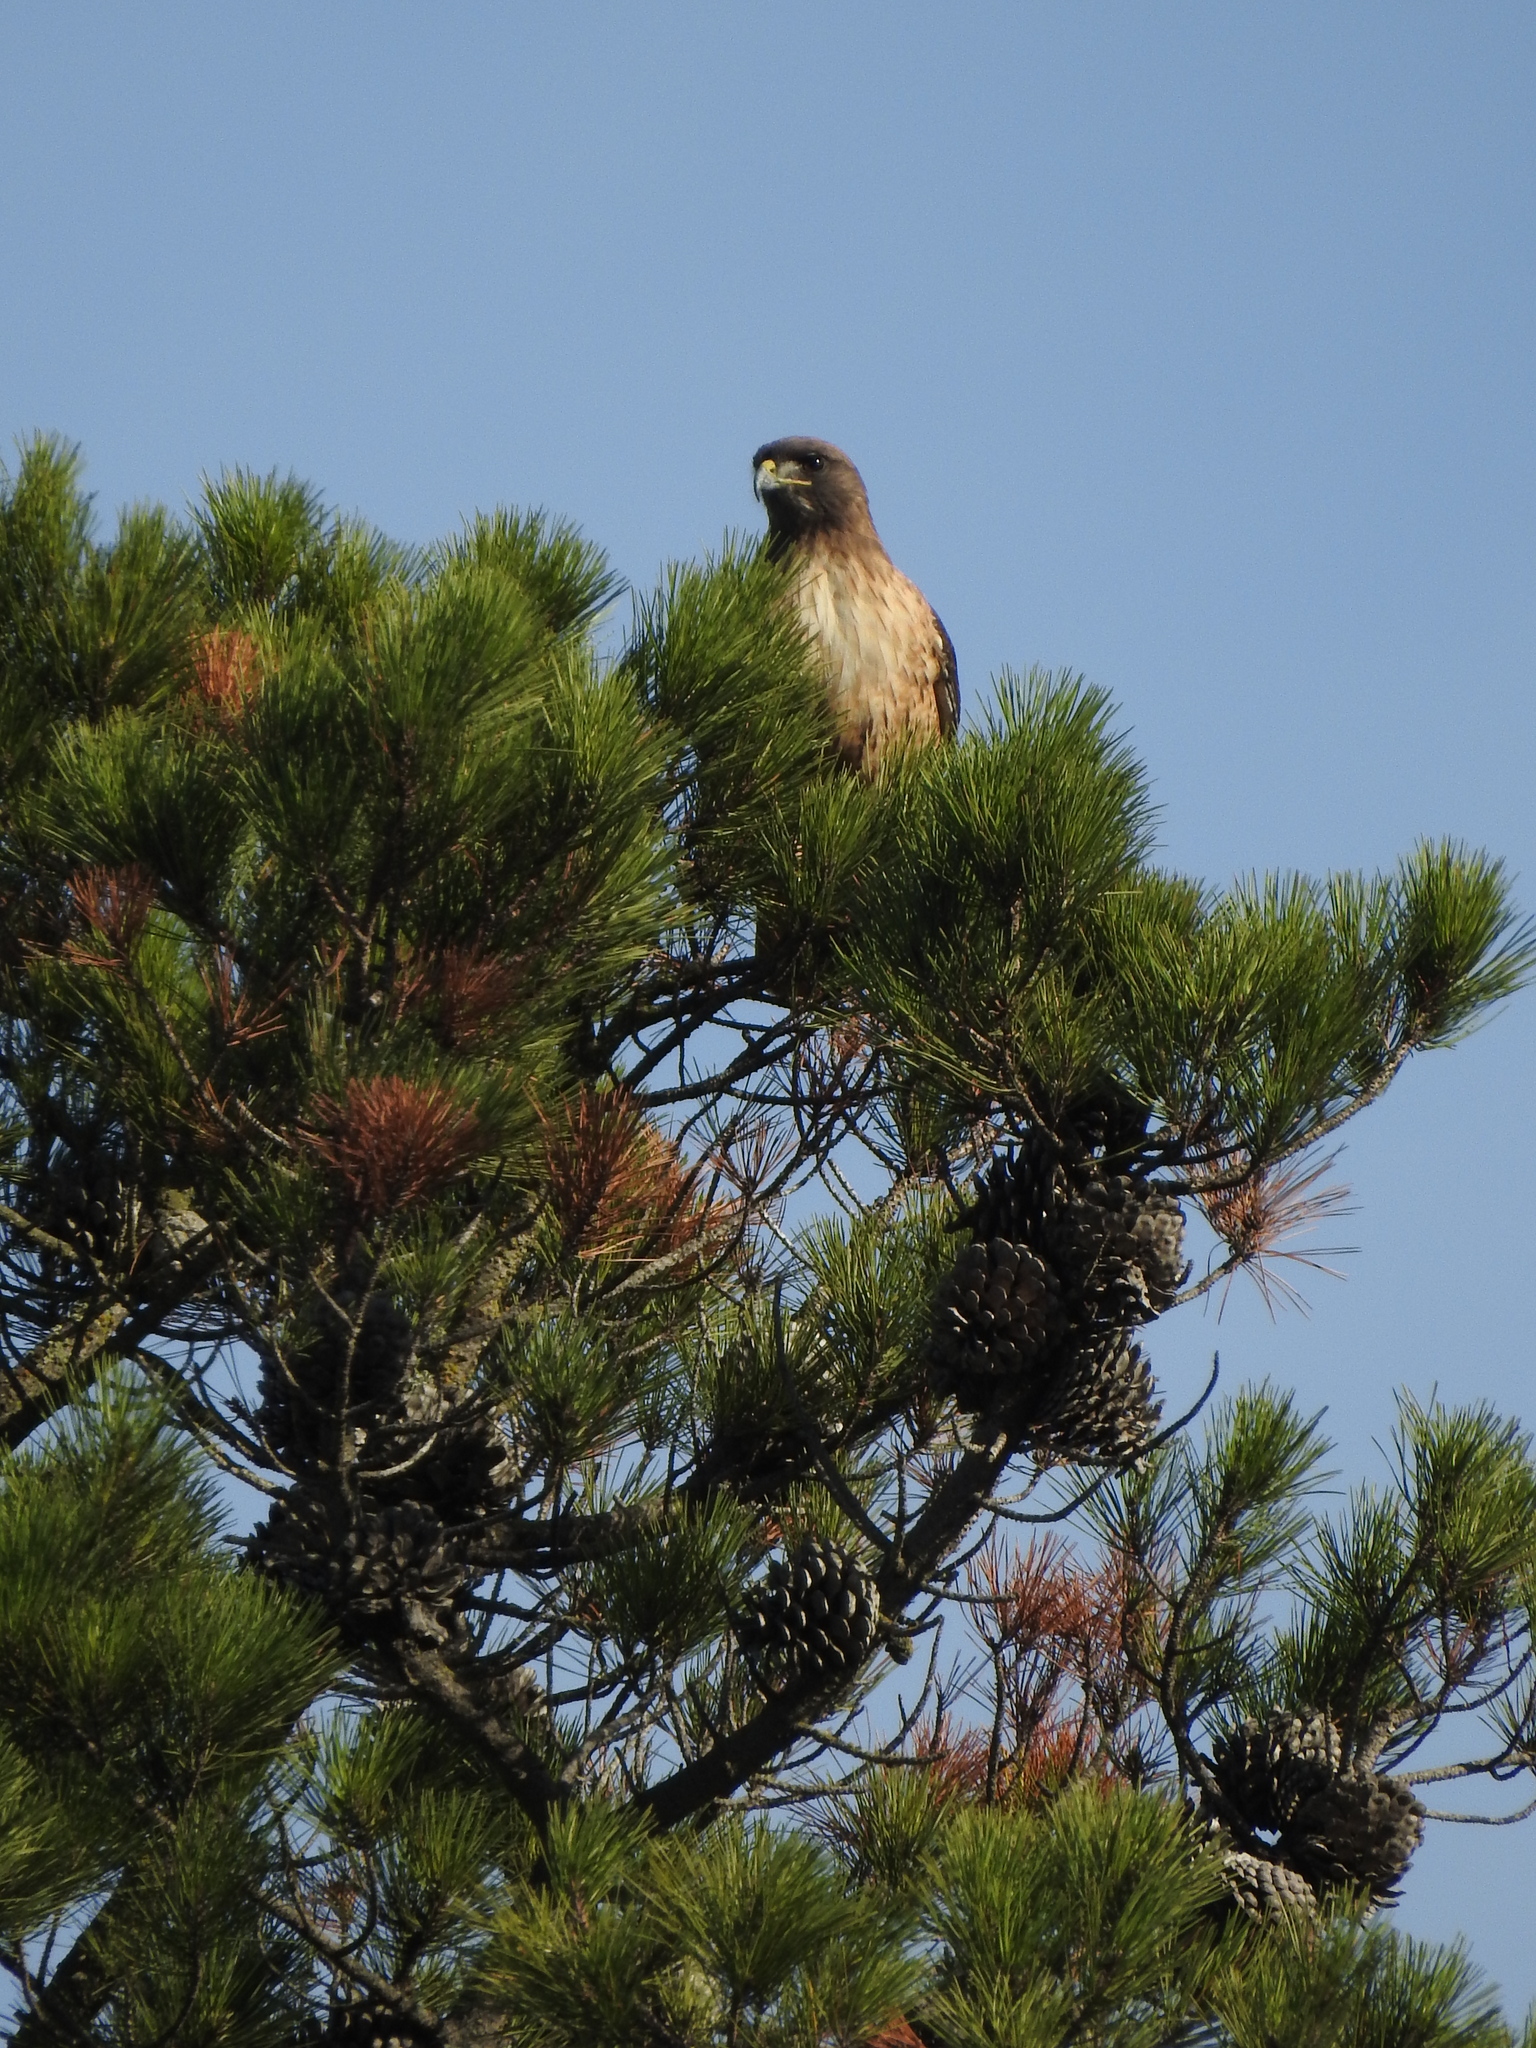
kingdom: Animalia
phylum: Chordata
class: Aves
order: Accipitriformes
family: Accipitridae
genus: Buteo
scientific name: Buteo jamaicensis
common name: Red-tailed hawk
